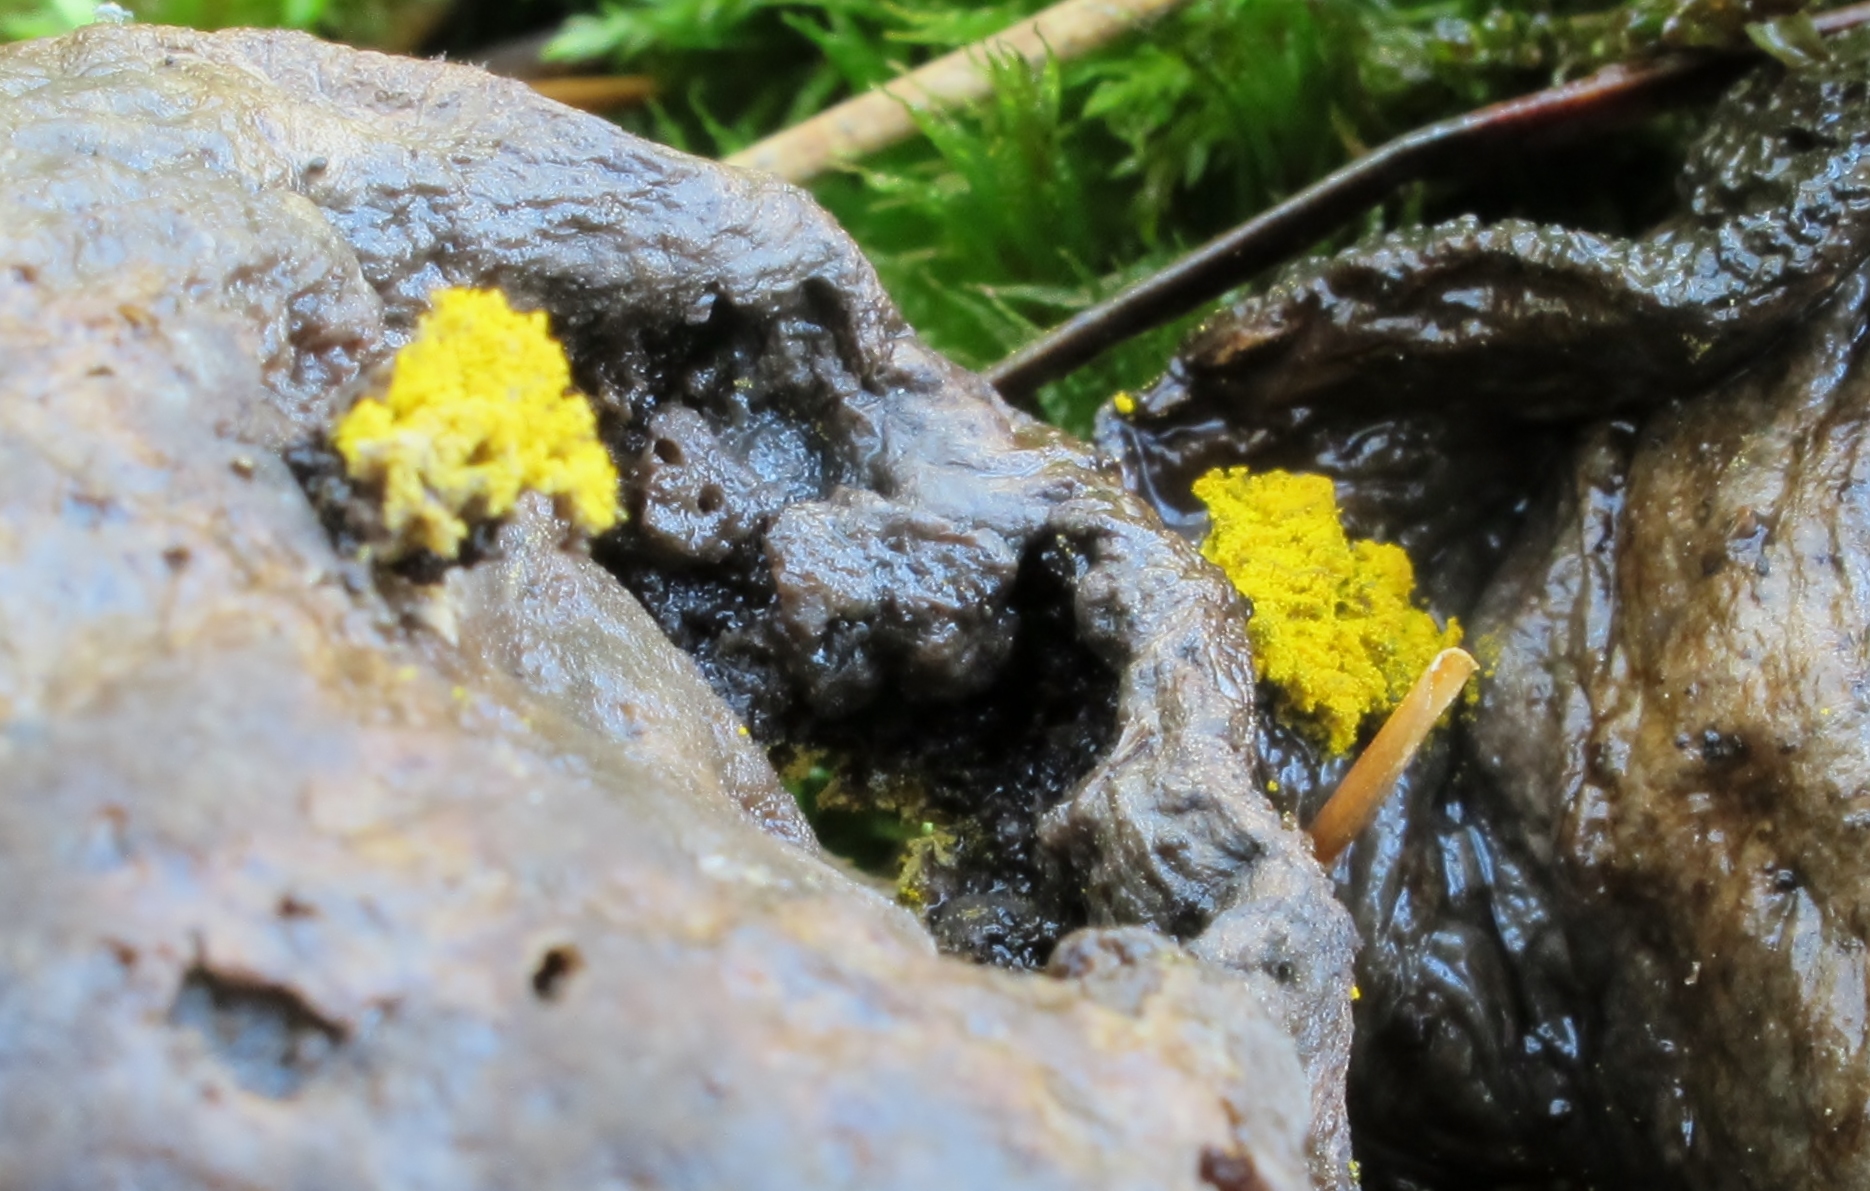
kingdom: Protozoa
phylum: Mycetozoa
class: Myxomycetes
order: Physarales
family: Physaraceae
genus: Fuligo
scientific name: Fuligo septica
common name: Dog vomit slime mold
